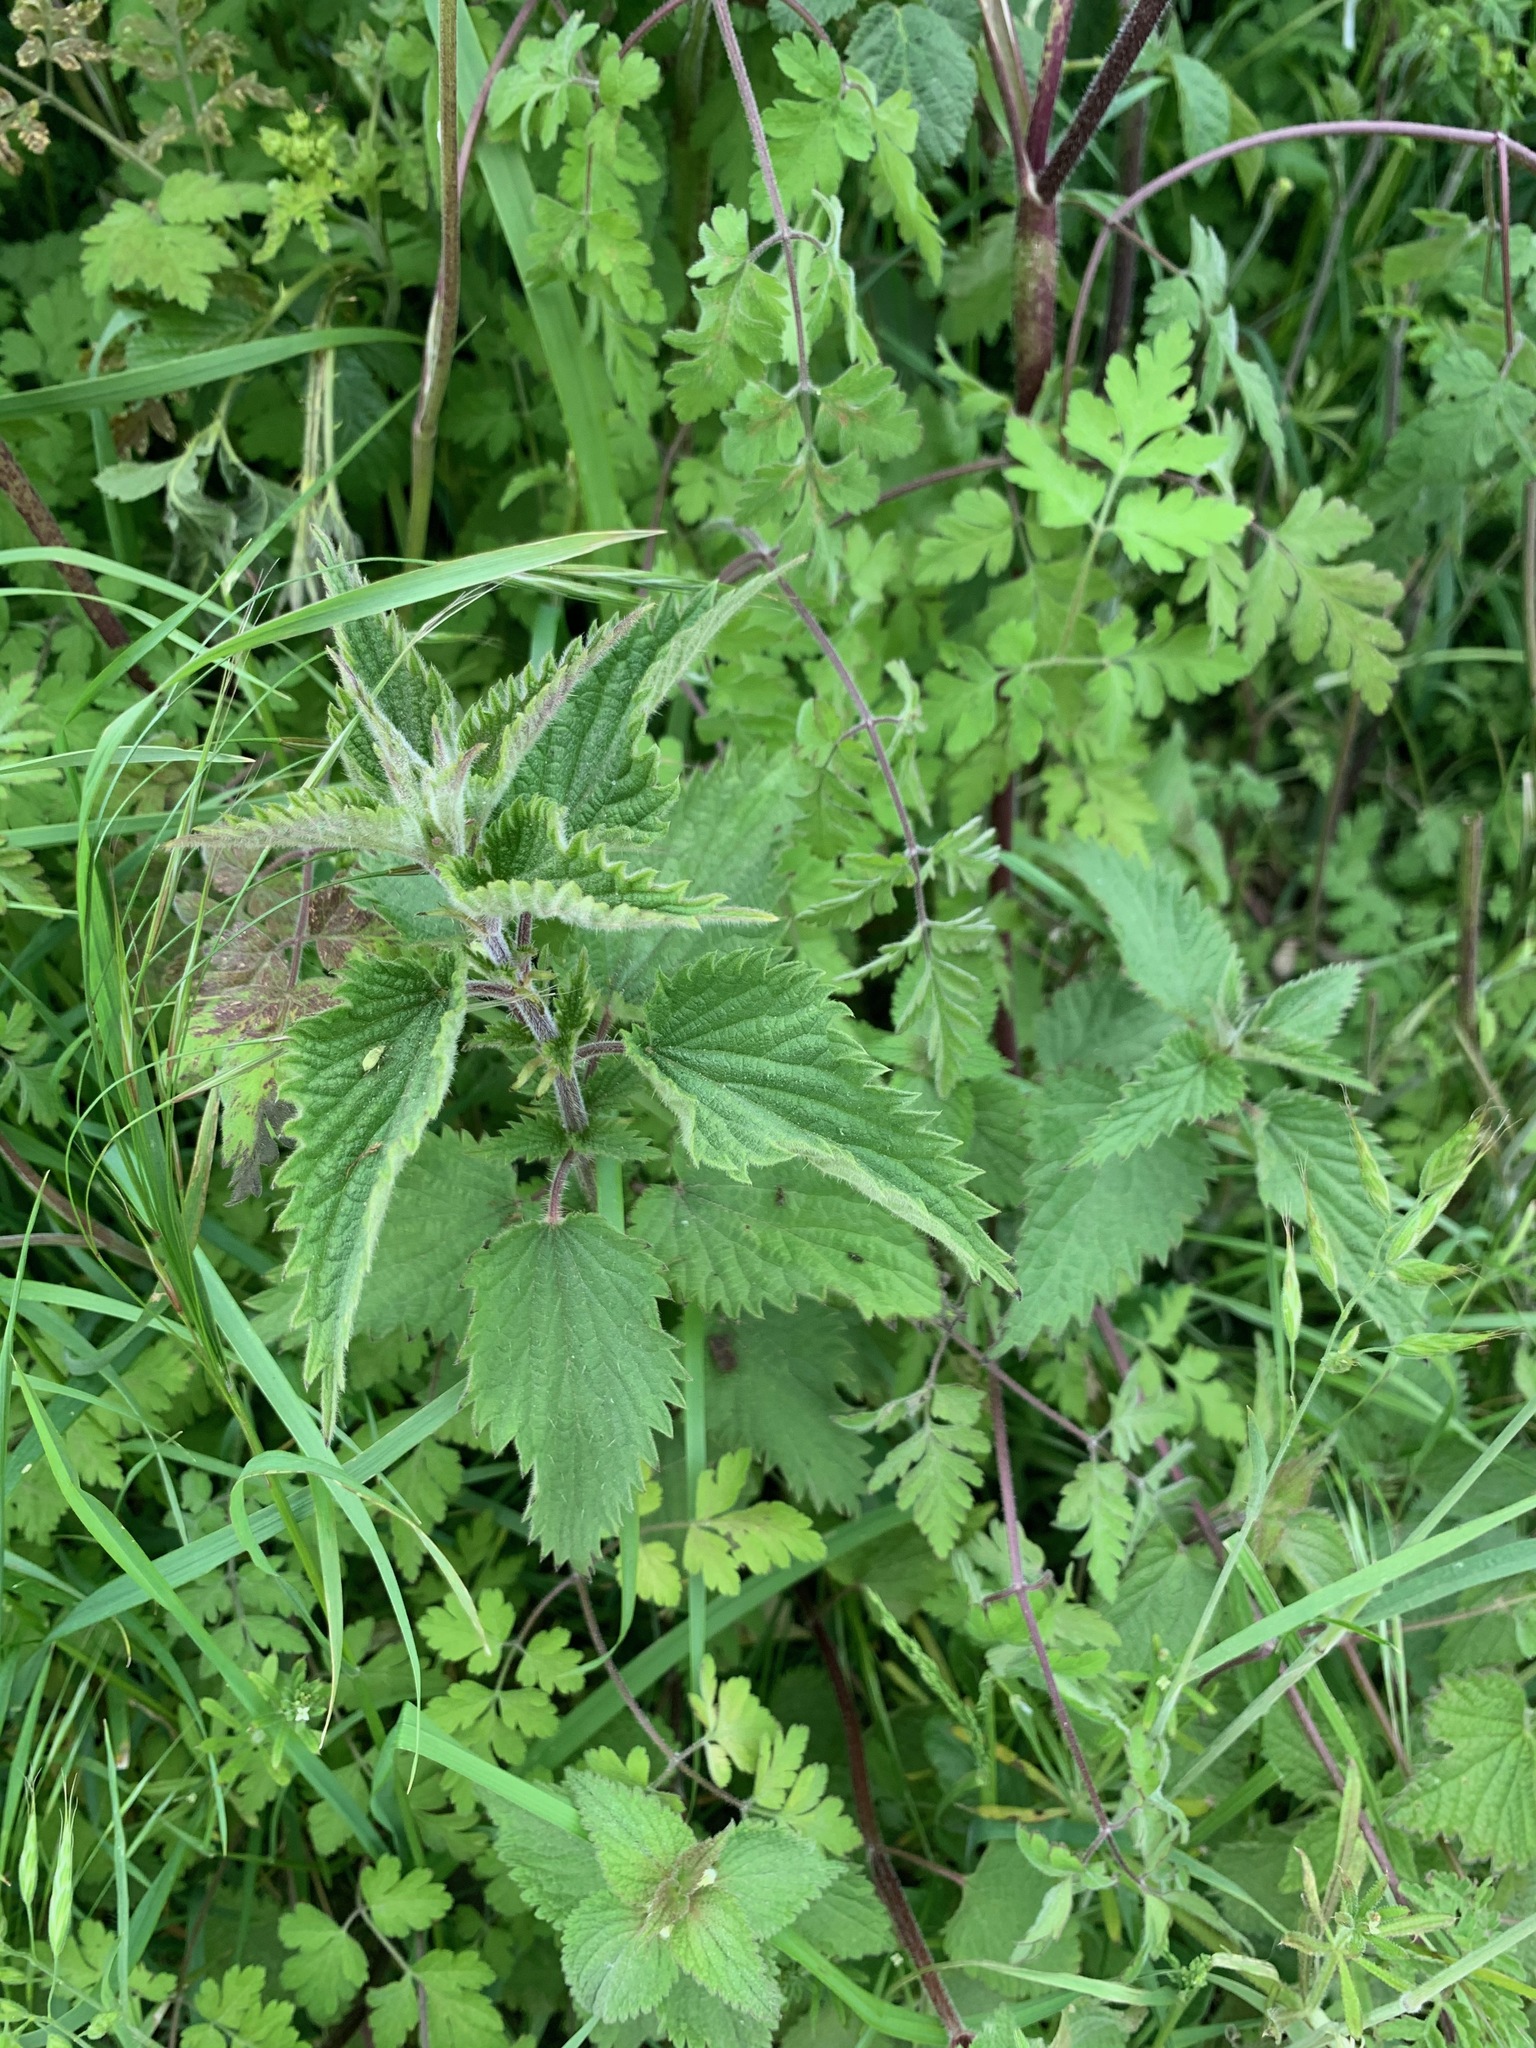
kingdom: Plantae
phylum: Tracheophyta
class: Magnoliopsida
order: Rosales
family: Urticaceae
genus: Urtica
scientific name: Urtica dioica
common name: Common nettle
